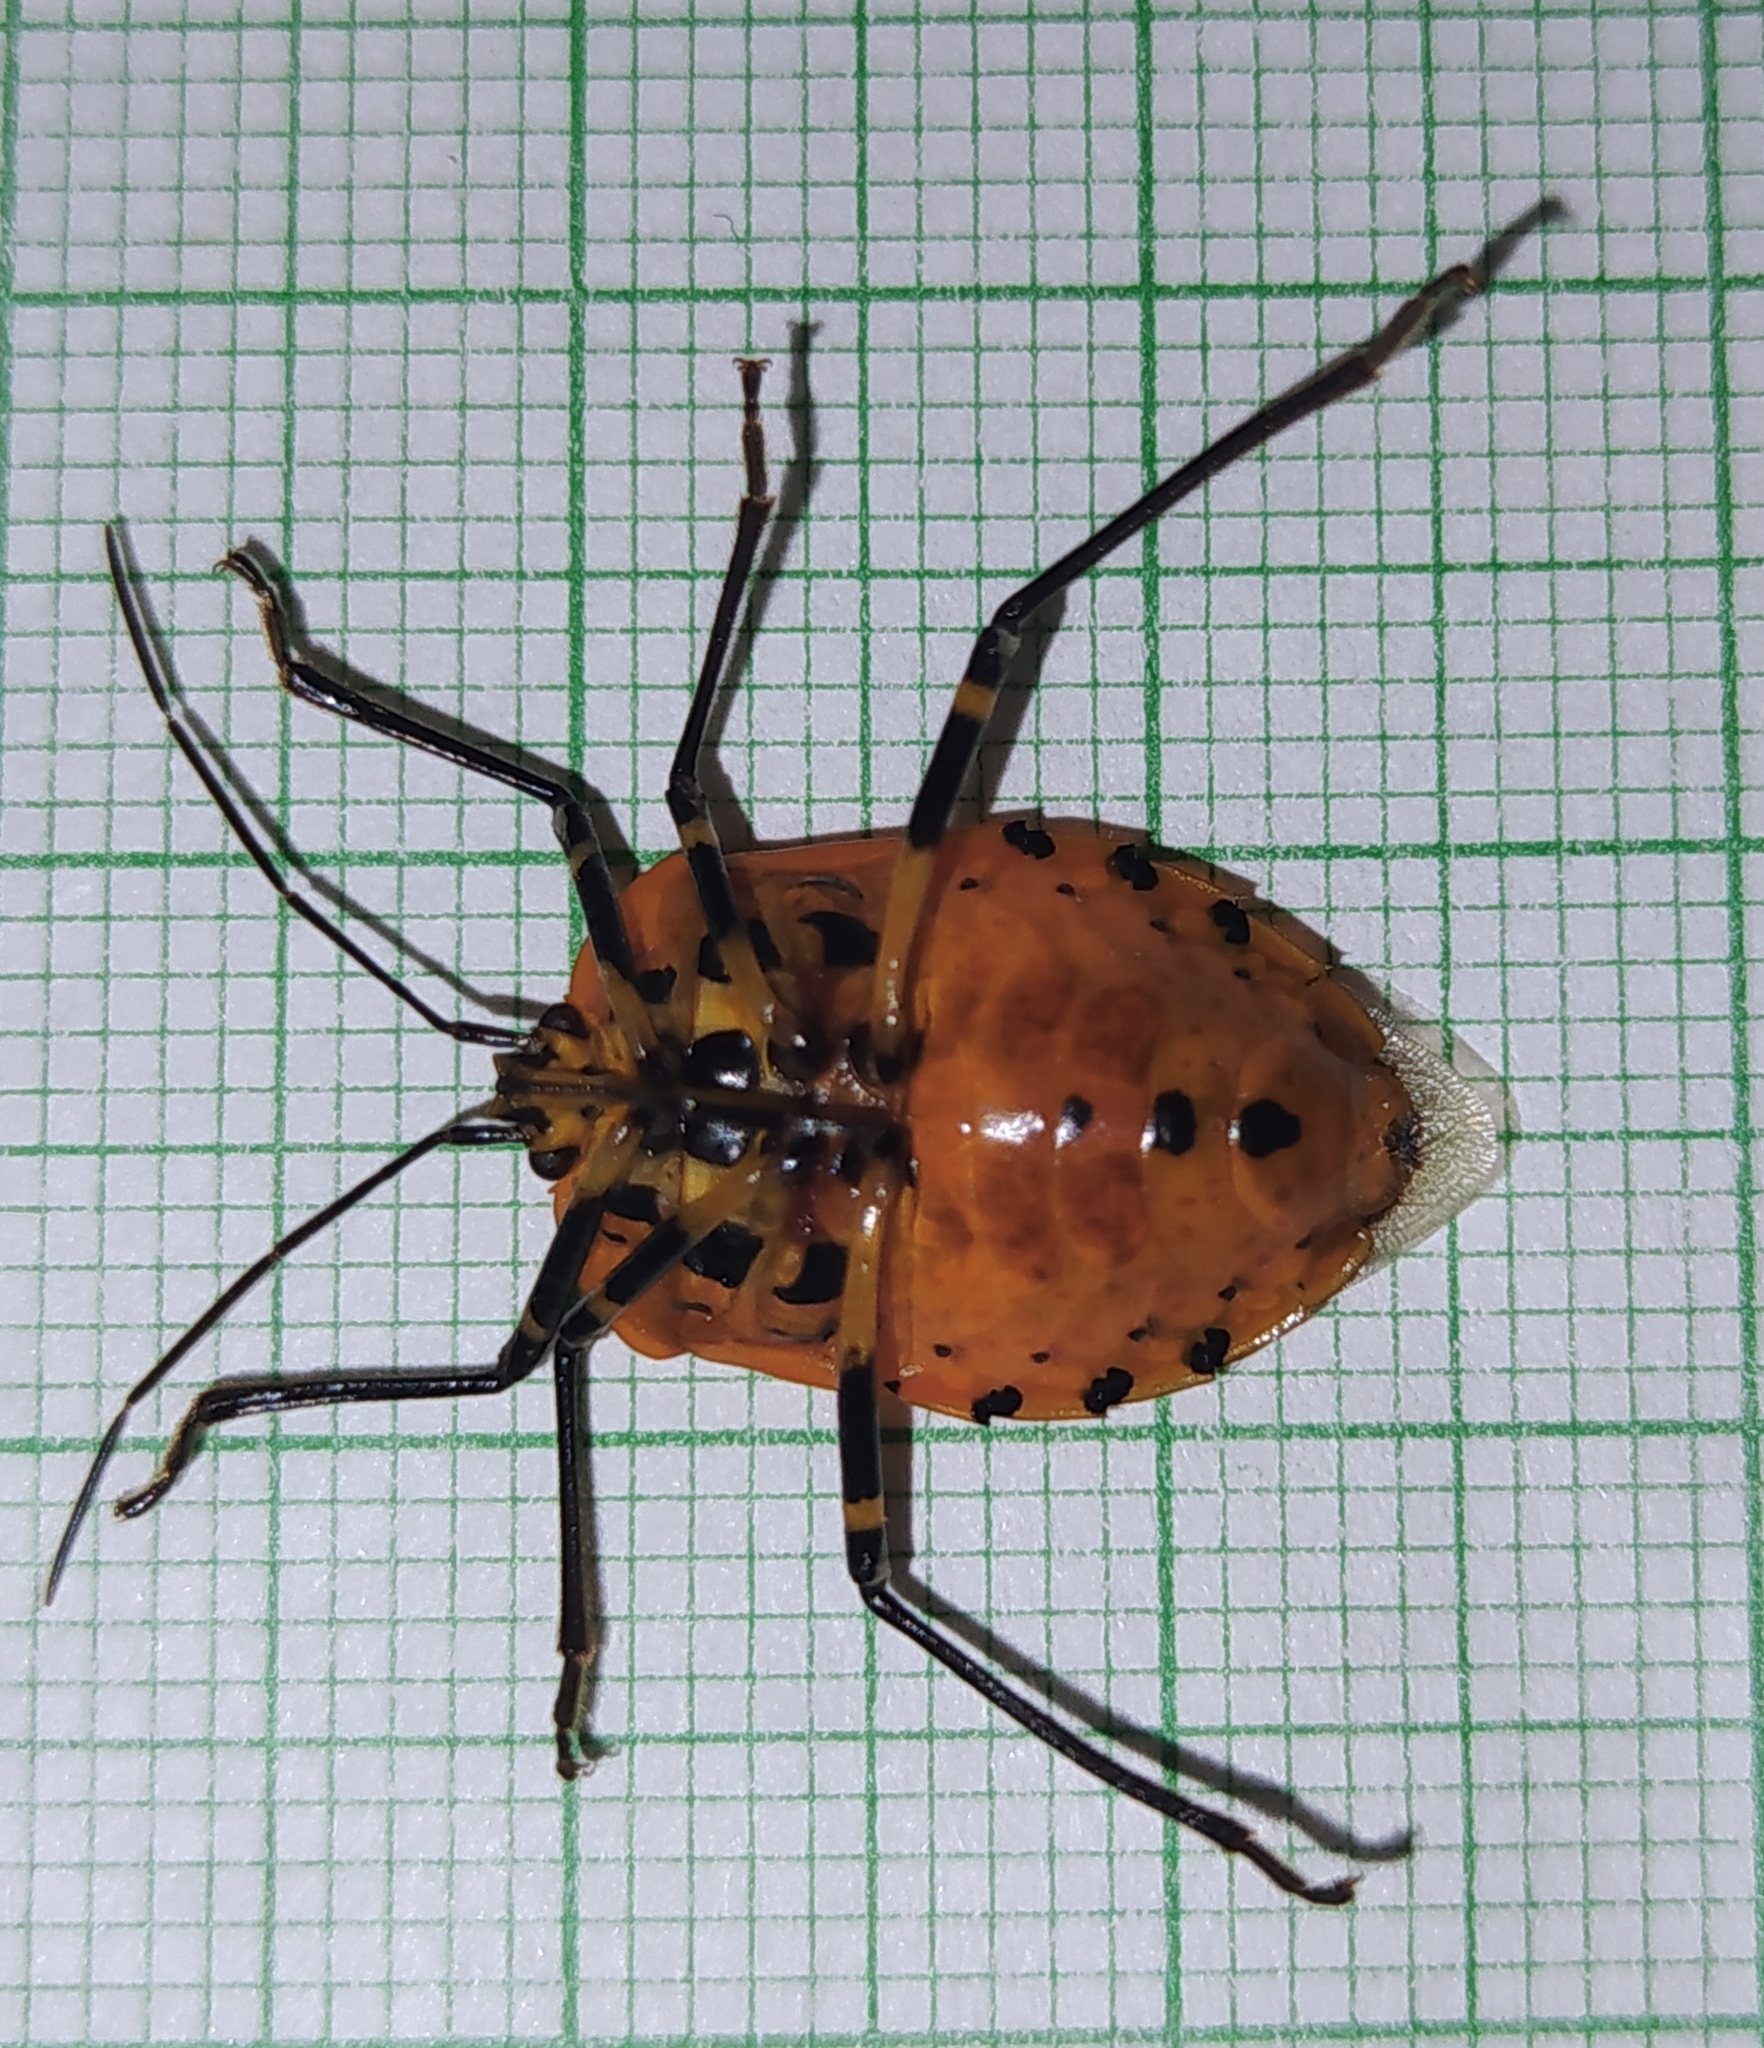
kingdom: Animalia
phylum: Arthropoda
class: Insecta
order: Hemiptera
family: Pentatomidae
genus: Runibia
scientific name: Runibia decorata
